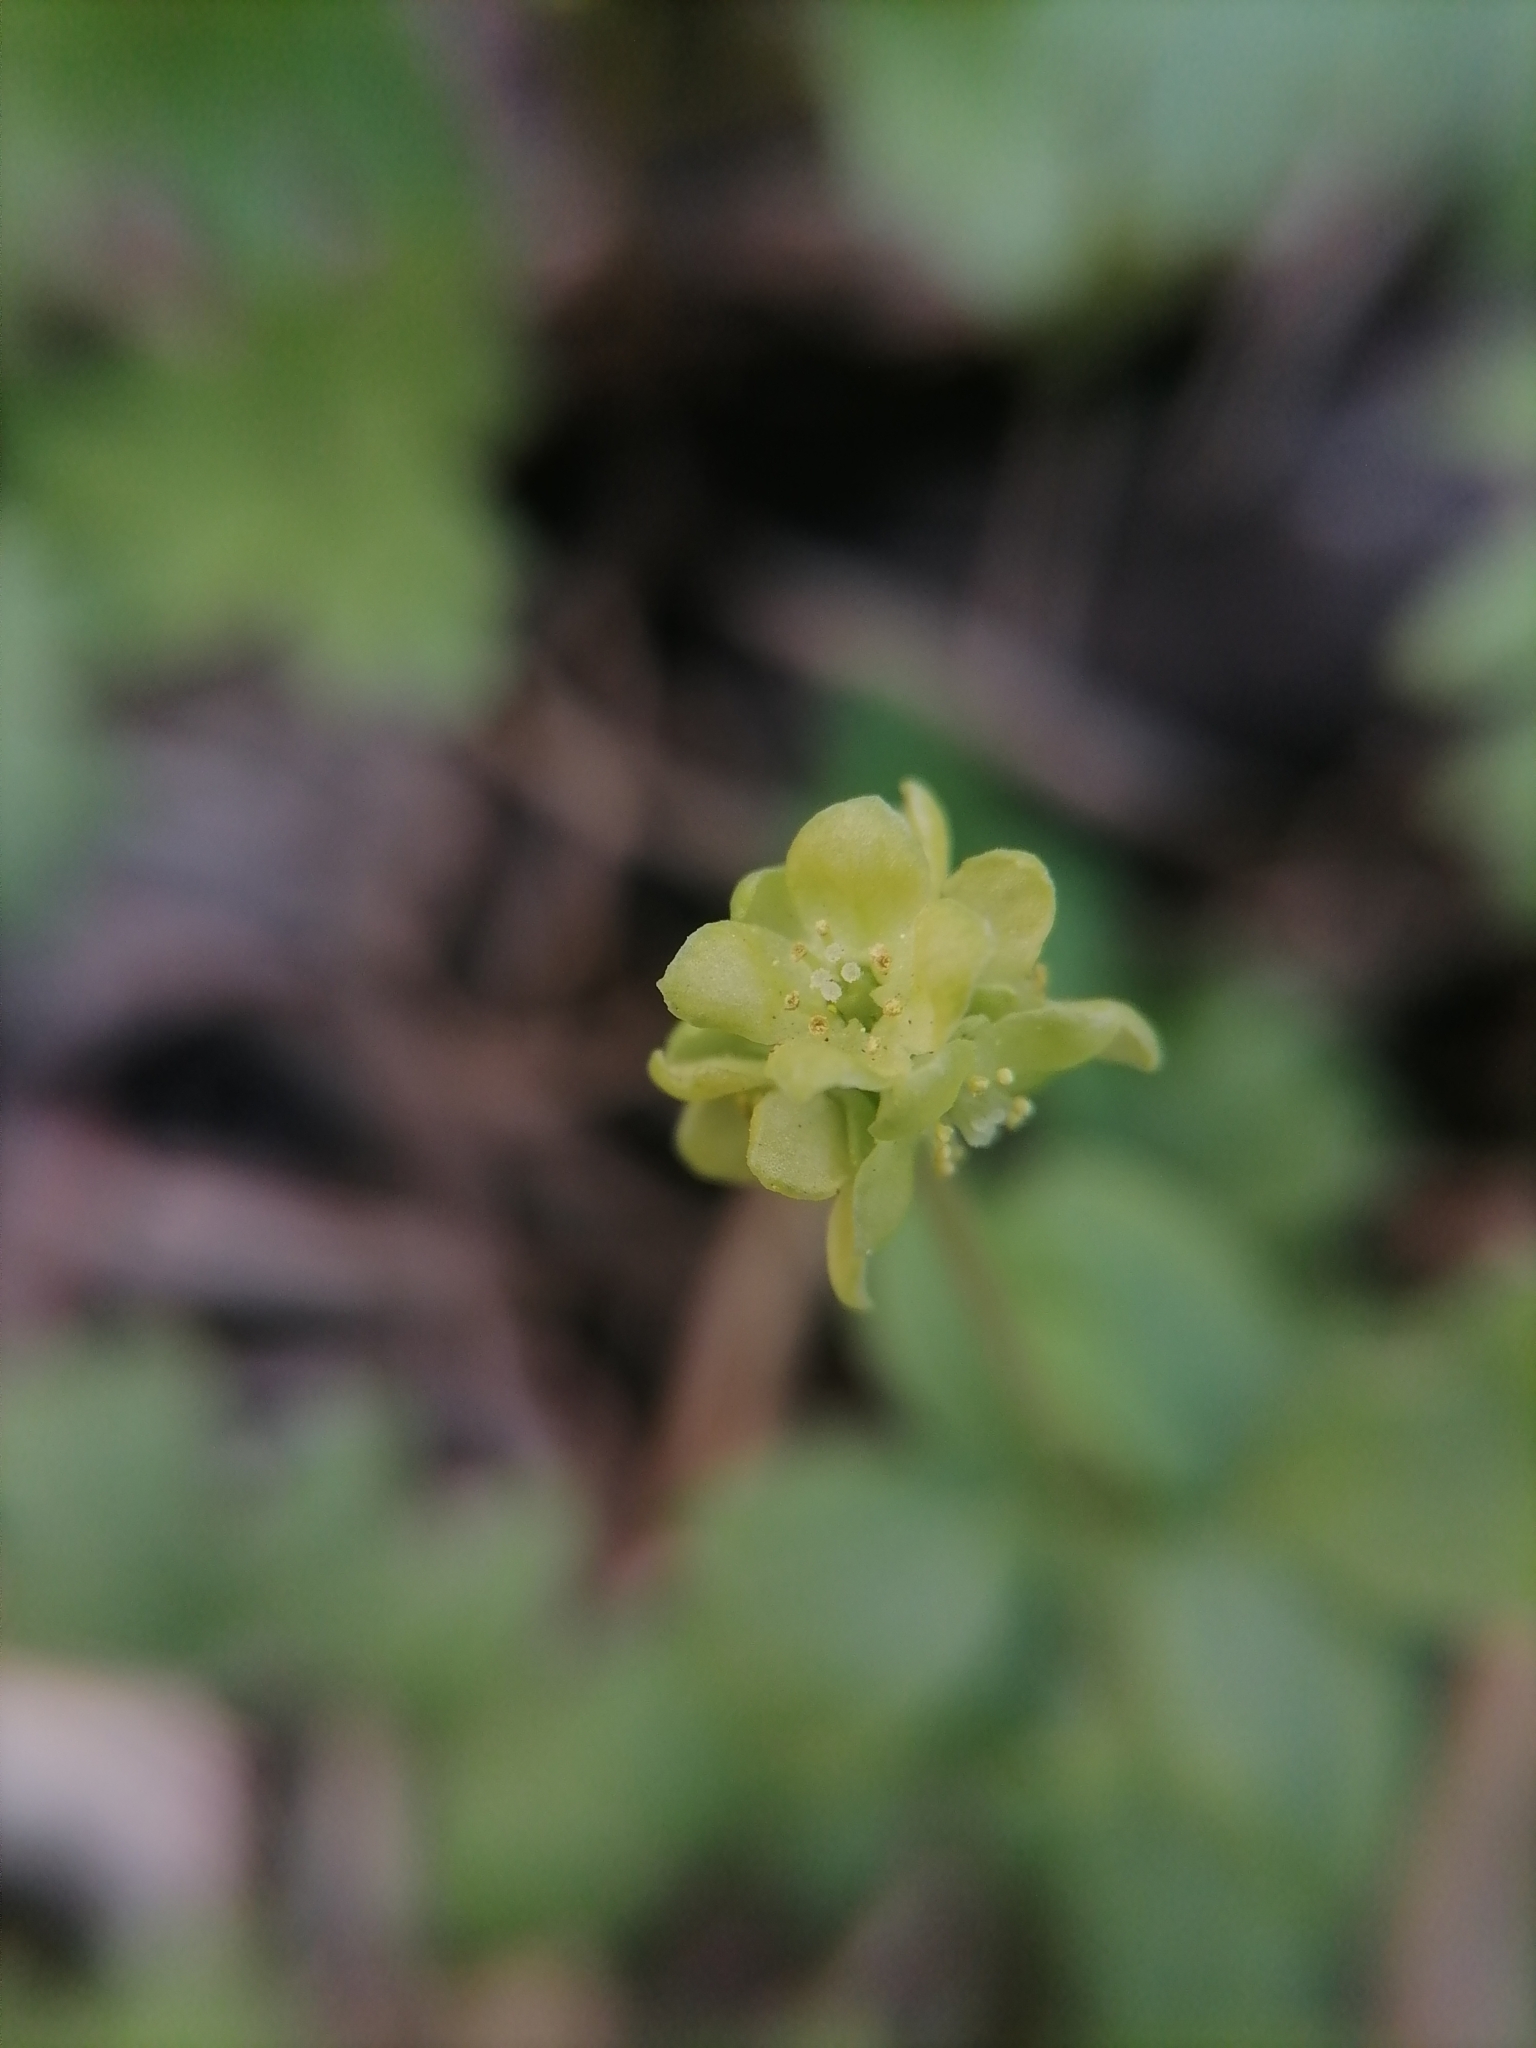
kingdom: Plantae
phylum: Tracheophyta
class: Magnoliopsida
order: Dipsacales
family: Viburnaceae
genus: Adoxa
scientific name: Adoxa moschatellina
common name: Moschatel
